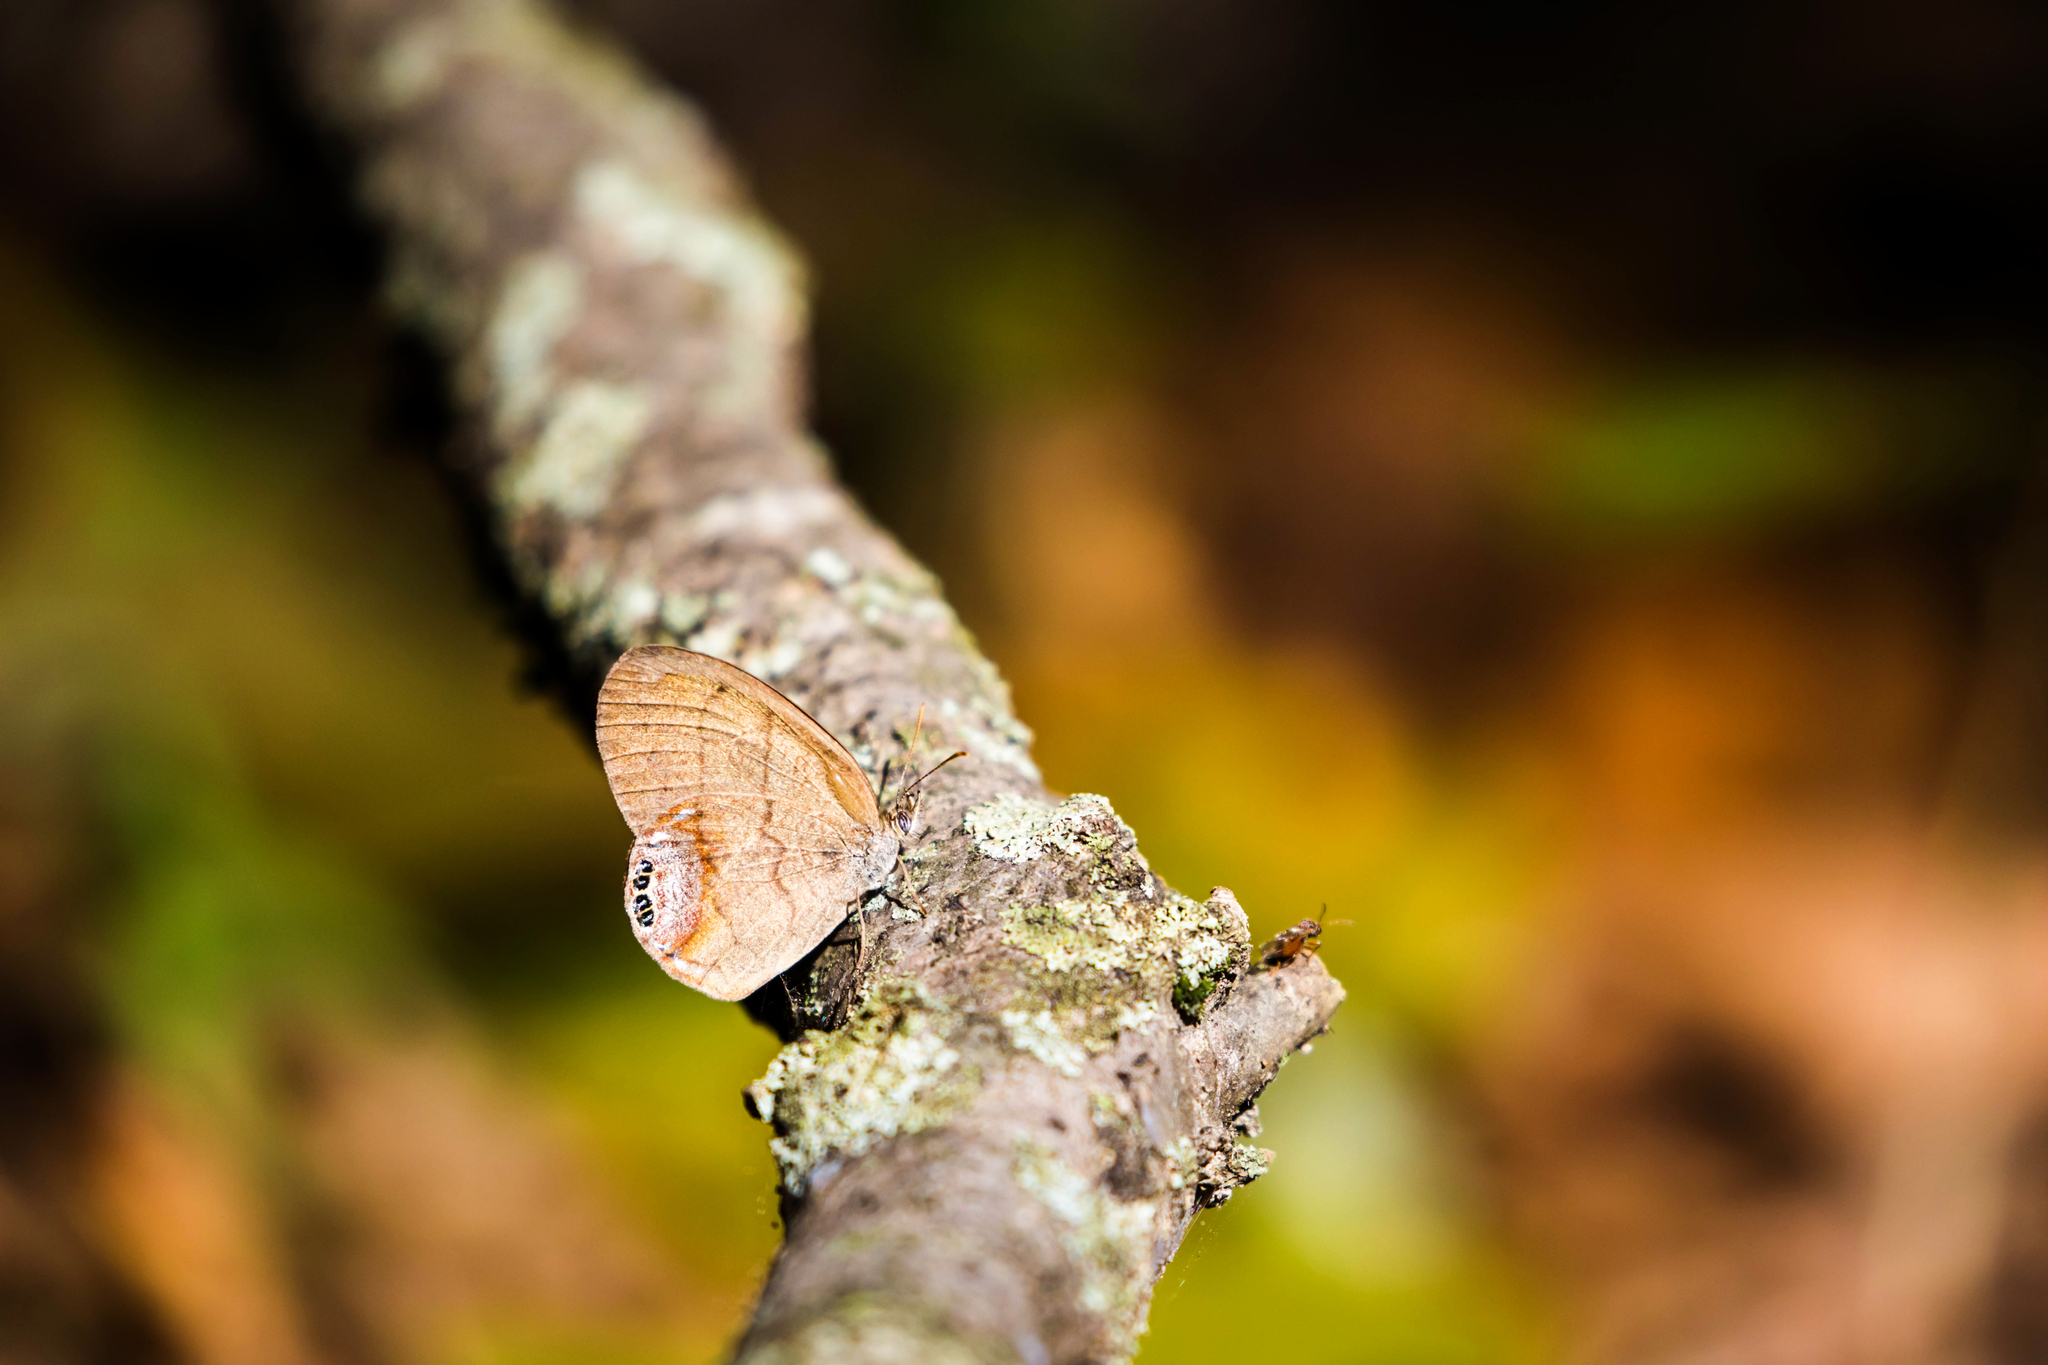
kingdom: Animalia
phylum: Arthropoda
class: Insecta
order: Lepidoptera
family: Nymphalidae
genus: Euptychia
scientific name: Euptychia cornelius
